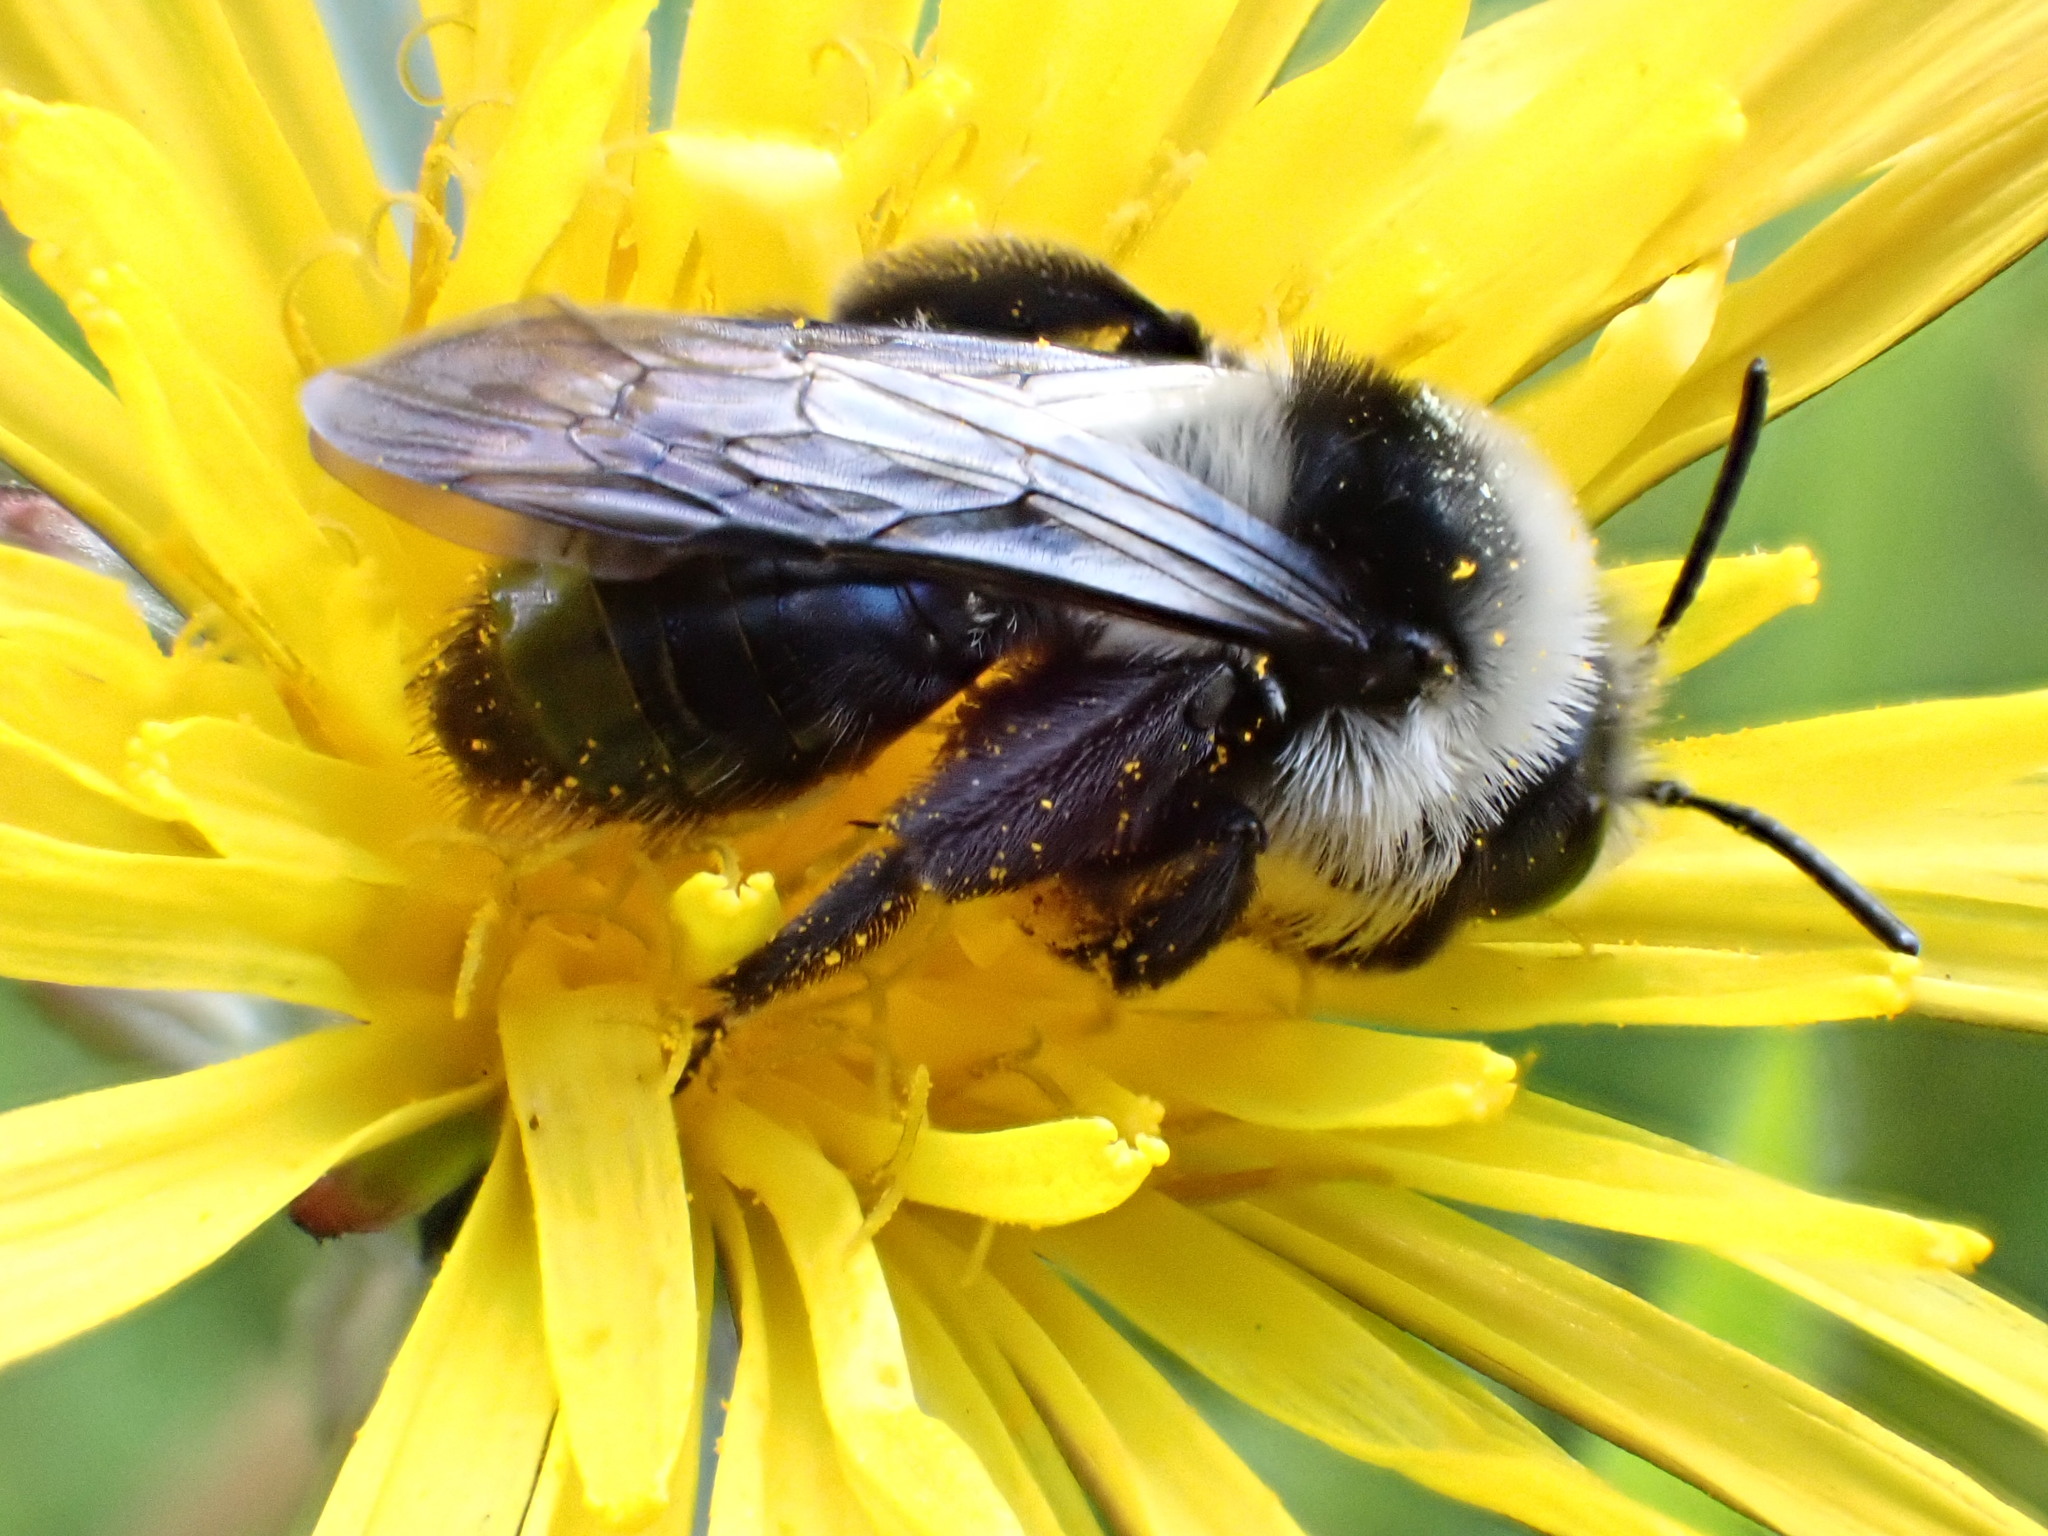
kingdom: Animalia
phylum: Arthropoda
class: Insecta
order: Hymenoptera
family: Andrenidae
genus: Andrena
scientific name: Andrena cineraria
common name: Ashy mining bee
